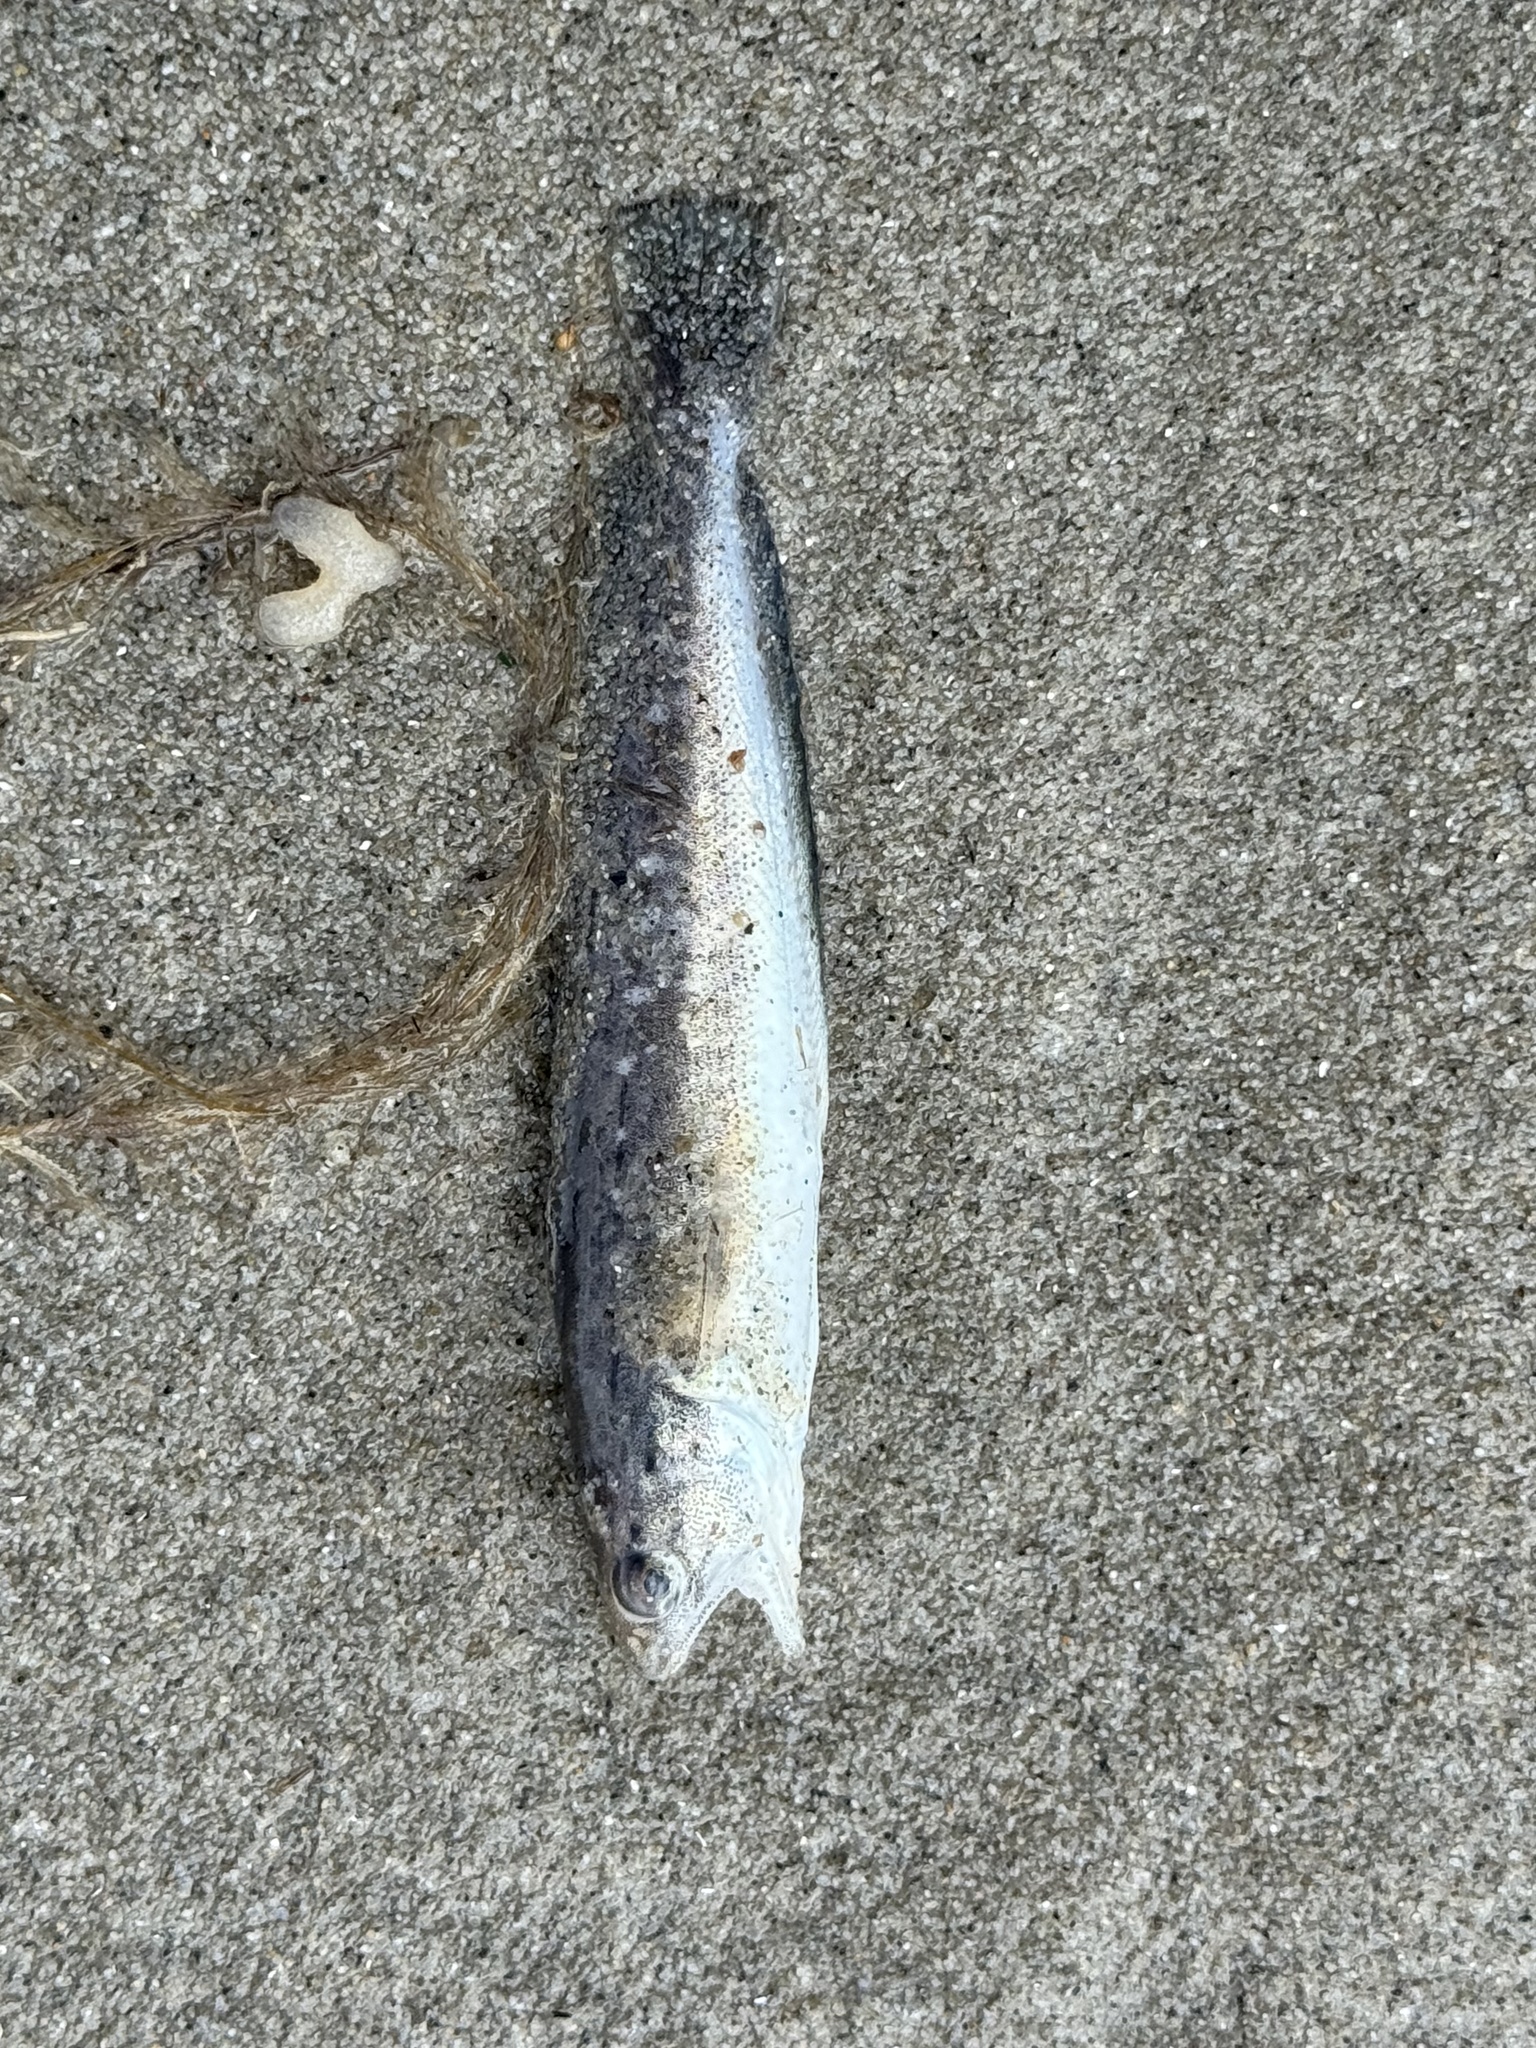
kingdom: Animalia
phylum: Chordata
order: Gadiformes
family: Phycidae
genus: Urophycis
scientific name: Urophycis regia
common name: Spotted codling
